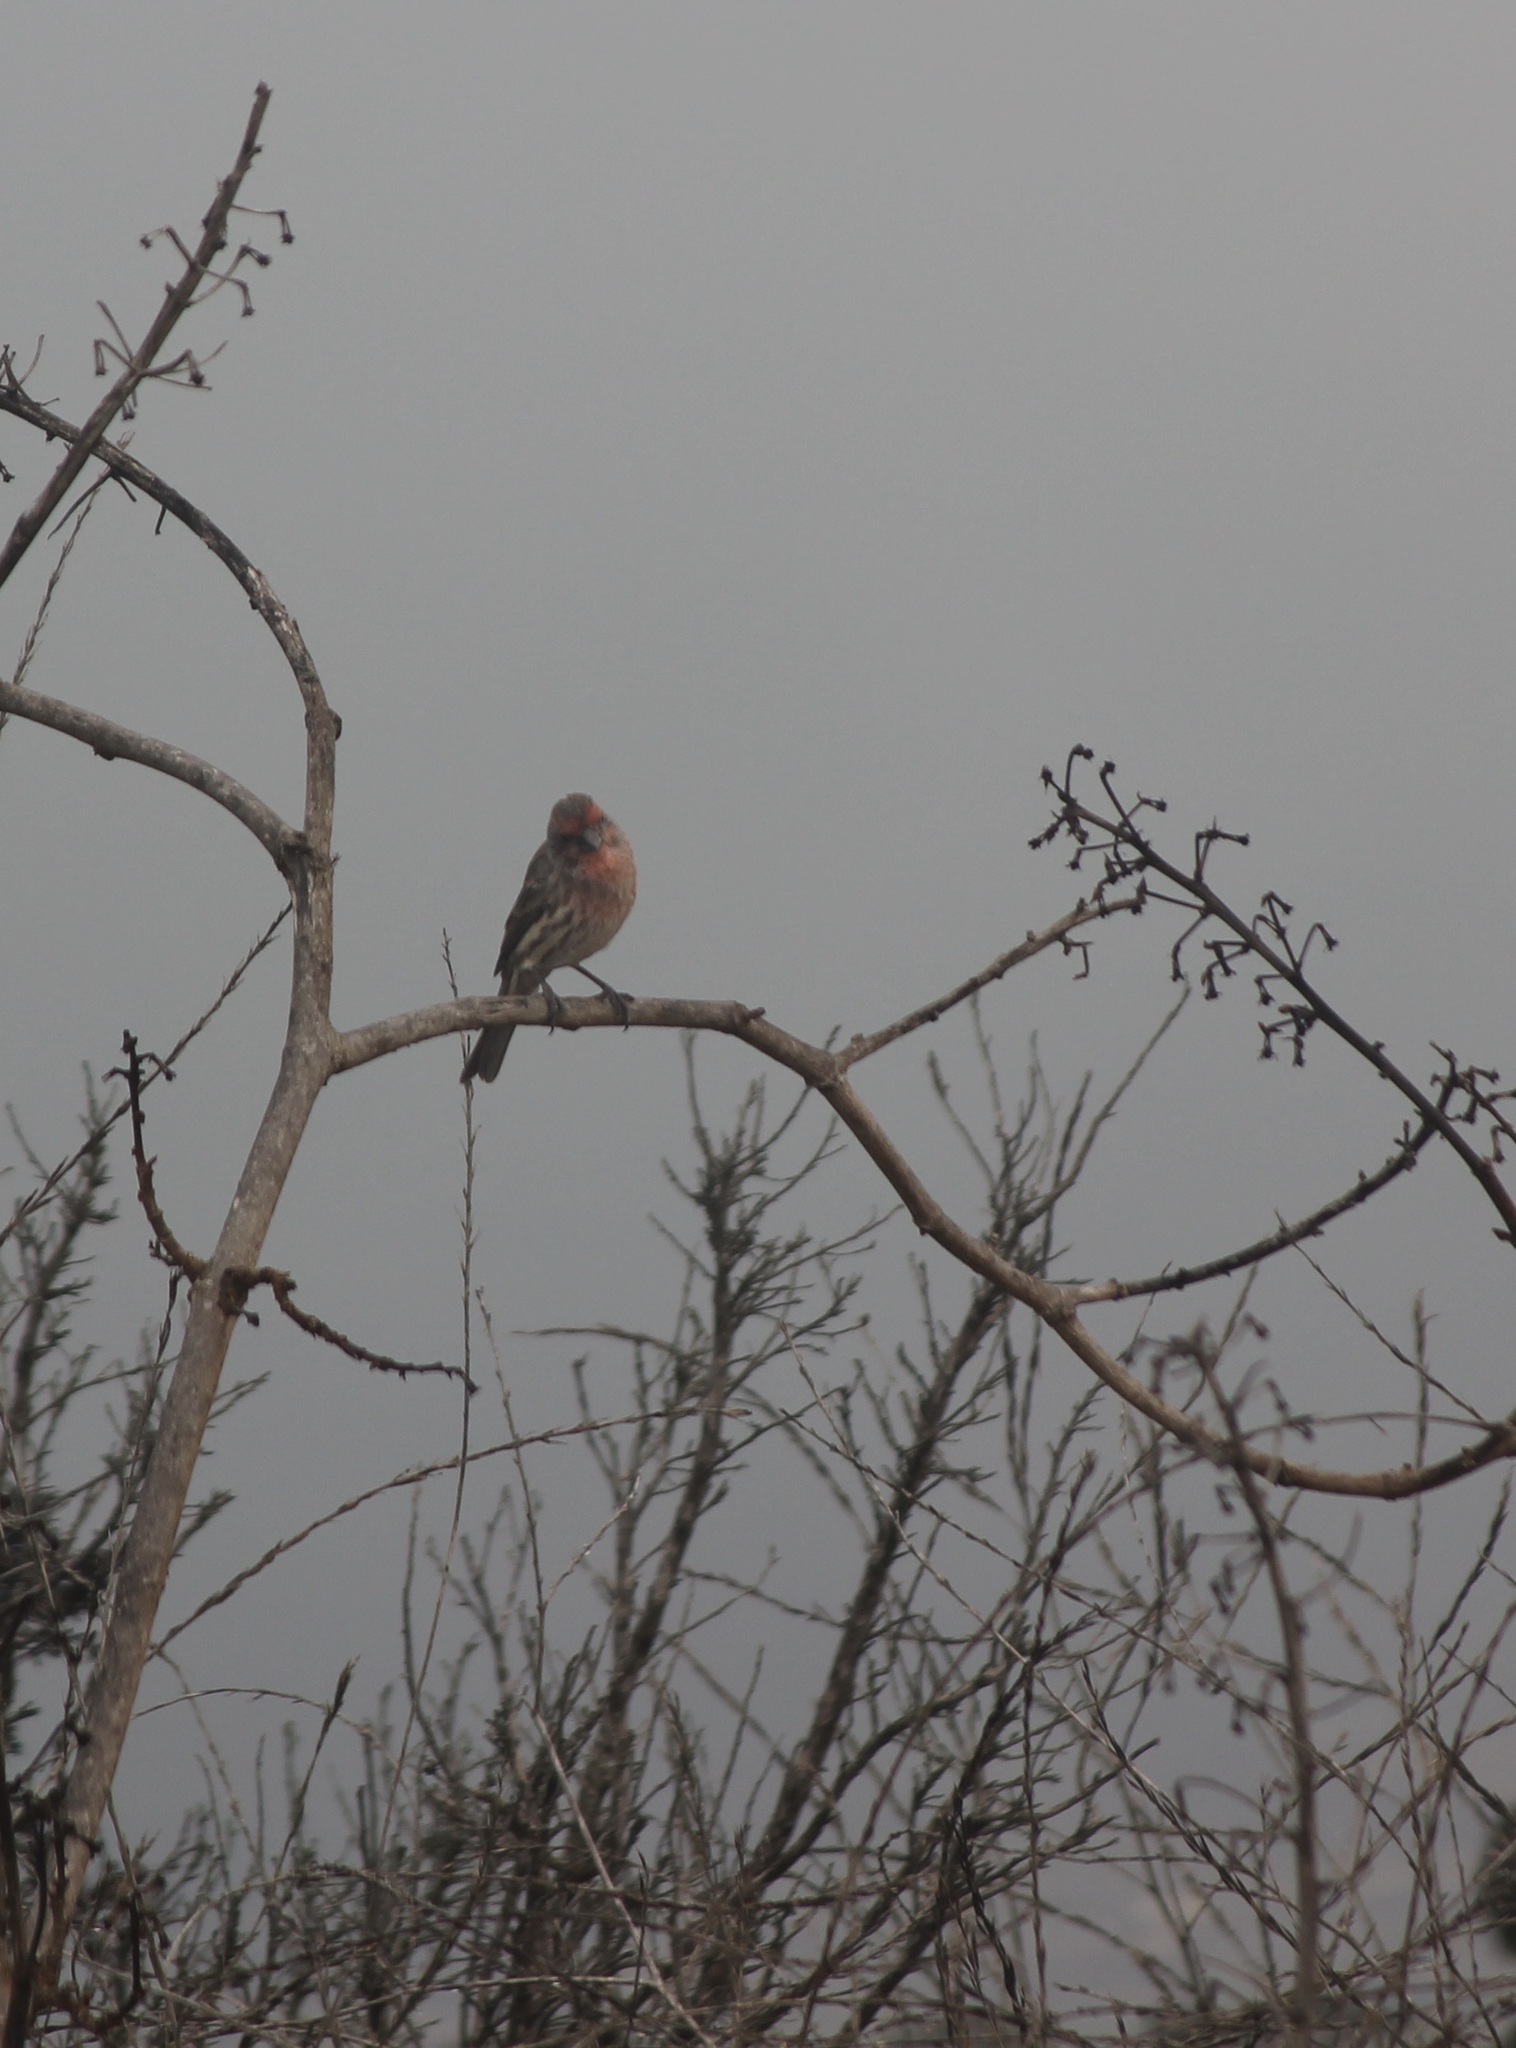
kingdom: Animalia
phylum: Chordata
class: Aves
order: Passeriformes
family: Fringillidae
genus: Haemorhous
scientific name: Haemorhous mexicanus
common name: House finch
